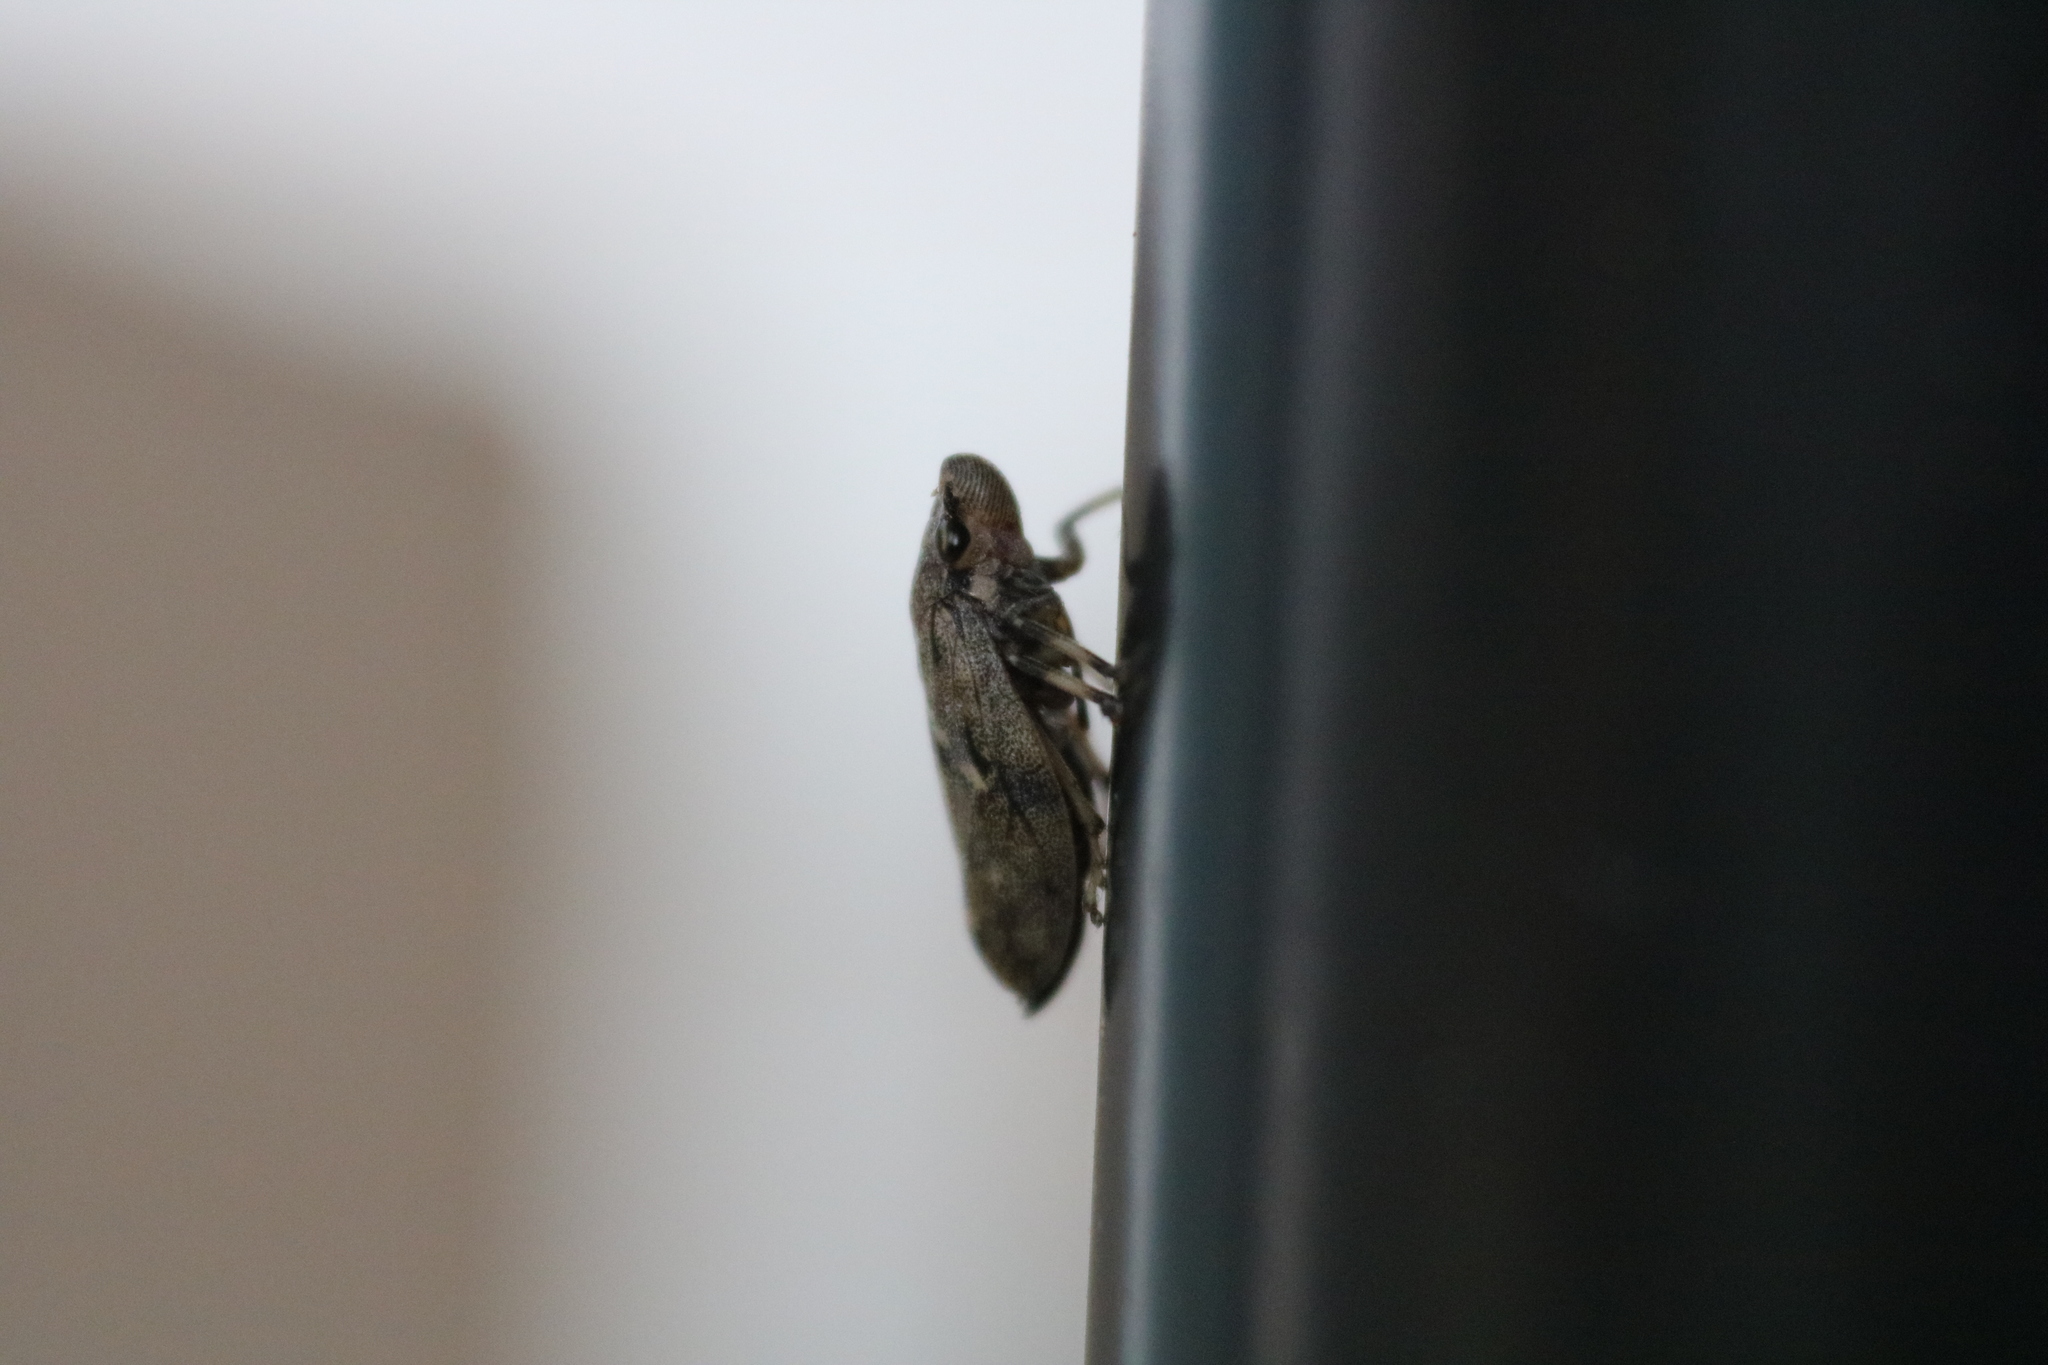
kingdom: Animalia
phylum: Arthropoda
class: Insecta
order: Hemiptera
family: Epipygidae
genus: Epipyga
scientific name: Epipyga cribrata
